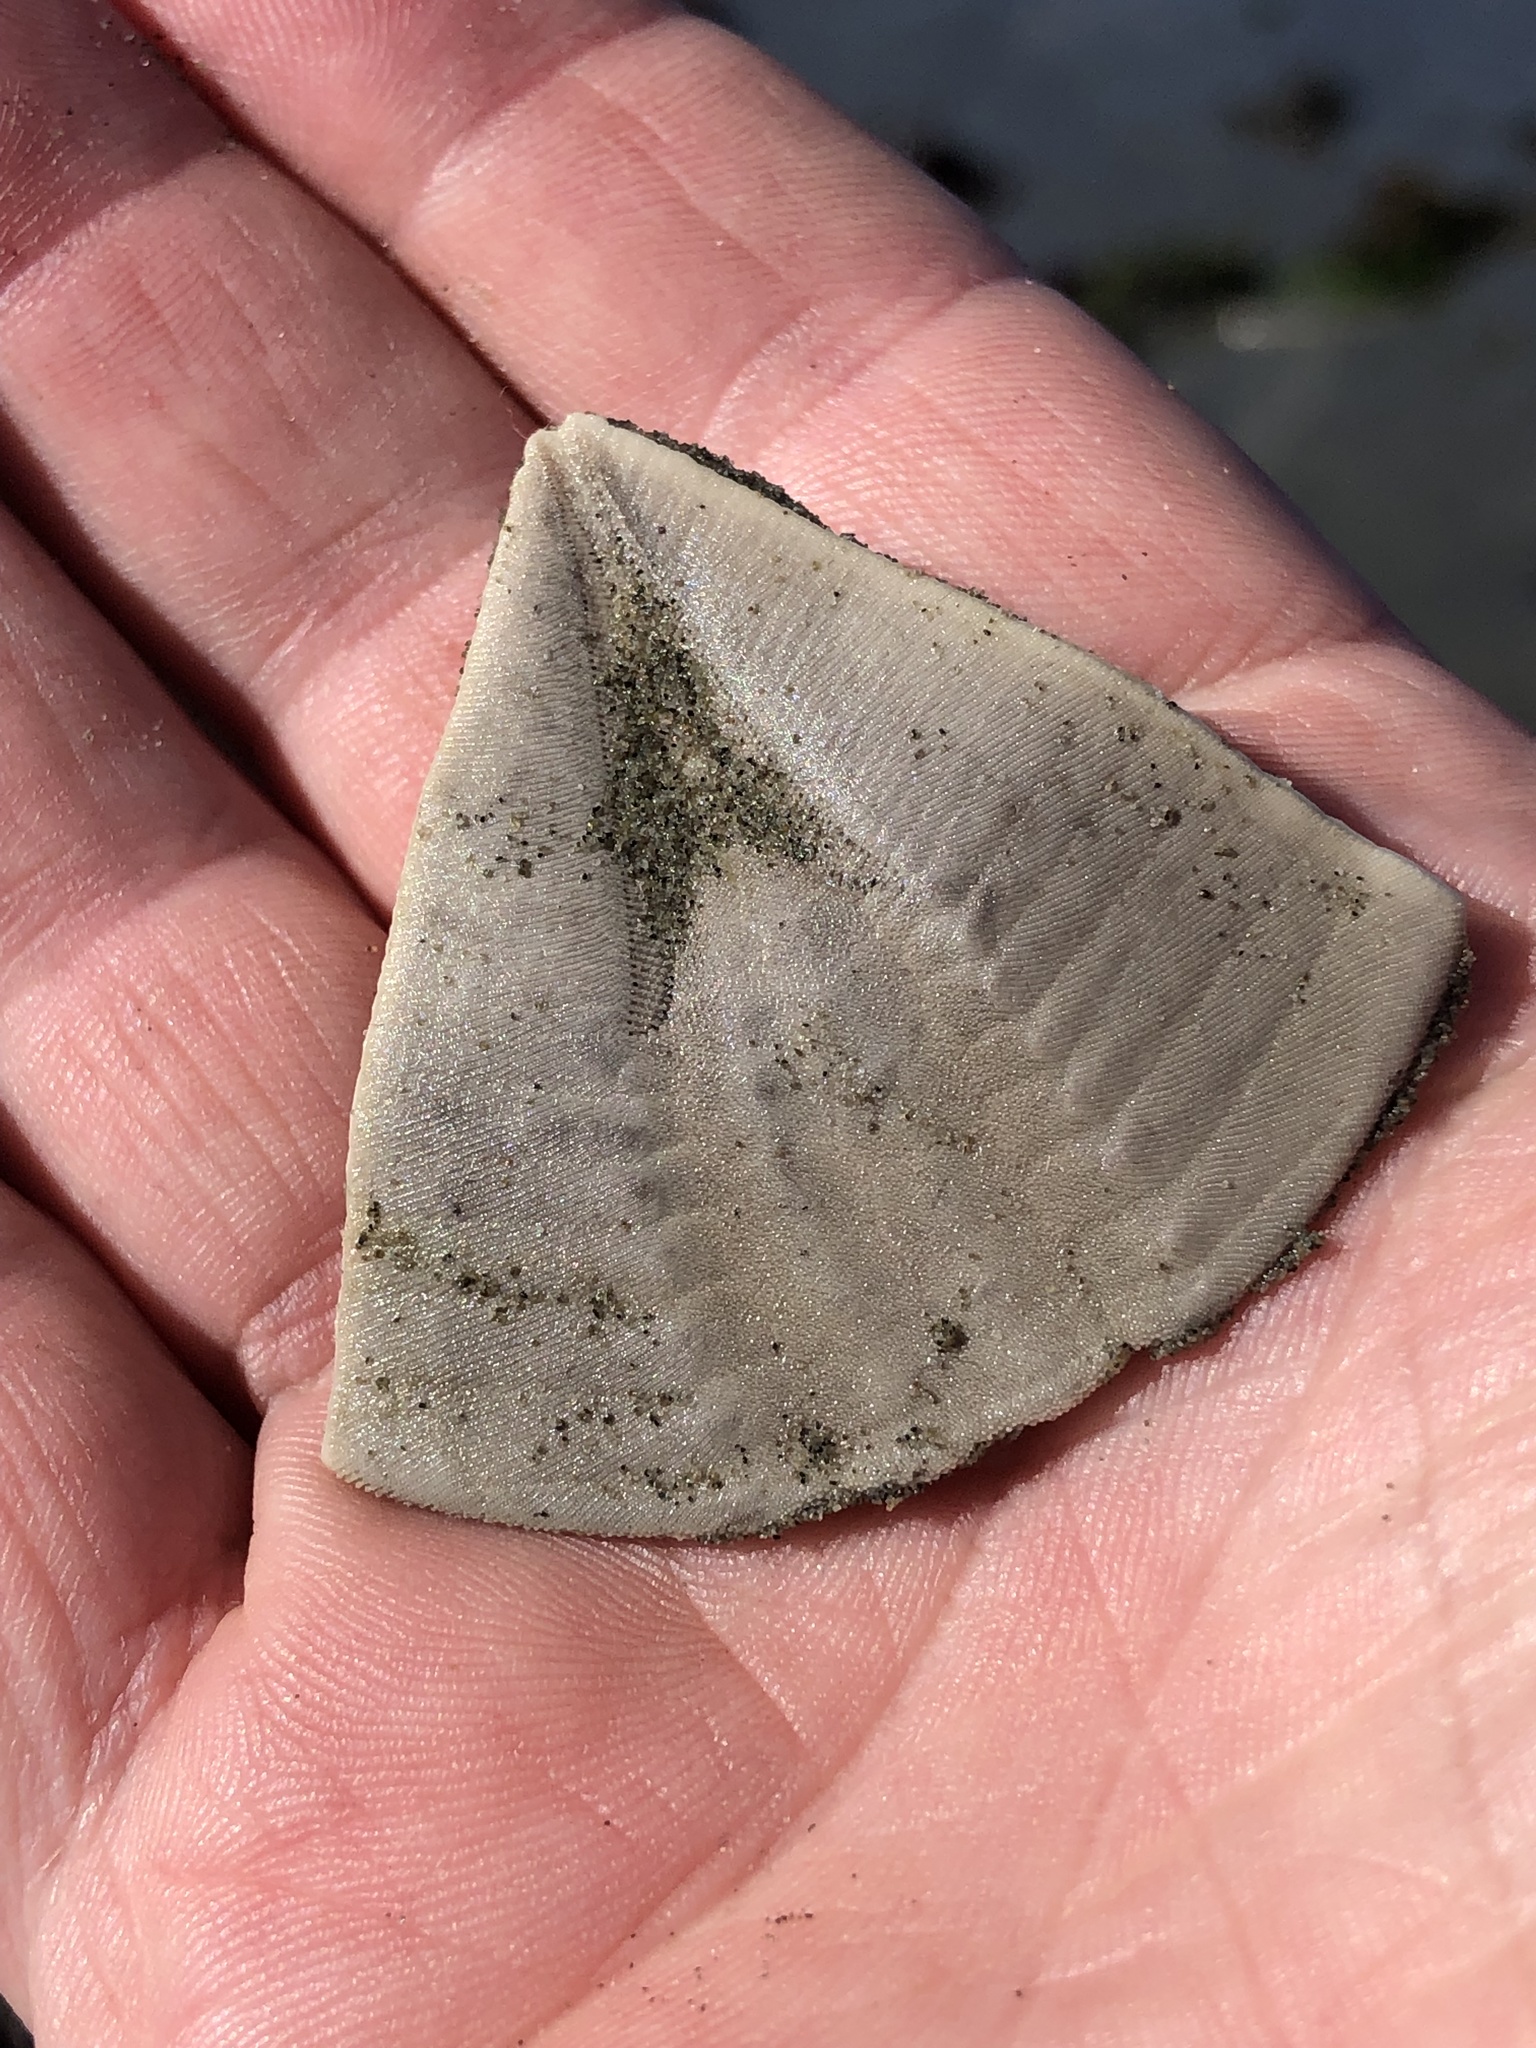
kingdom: Animalia
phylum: Echinodermata
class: Echinoidea
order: Clypeasteroida
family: Clypeasteridae
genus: Fellaster
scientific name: Fellaster zelandiae
